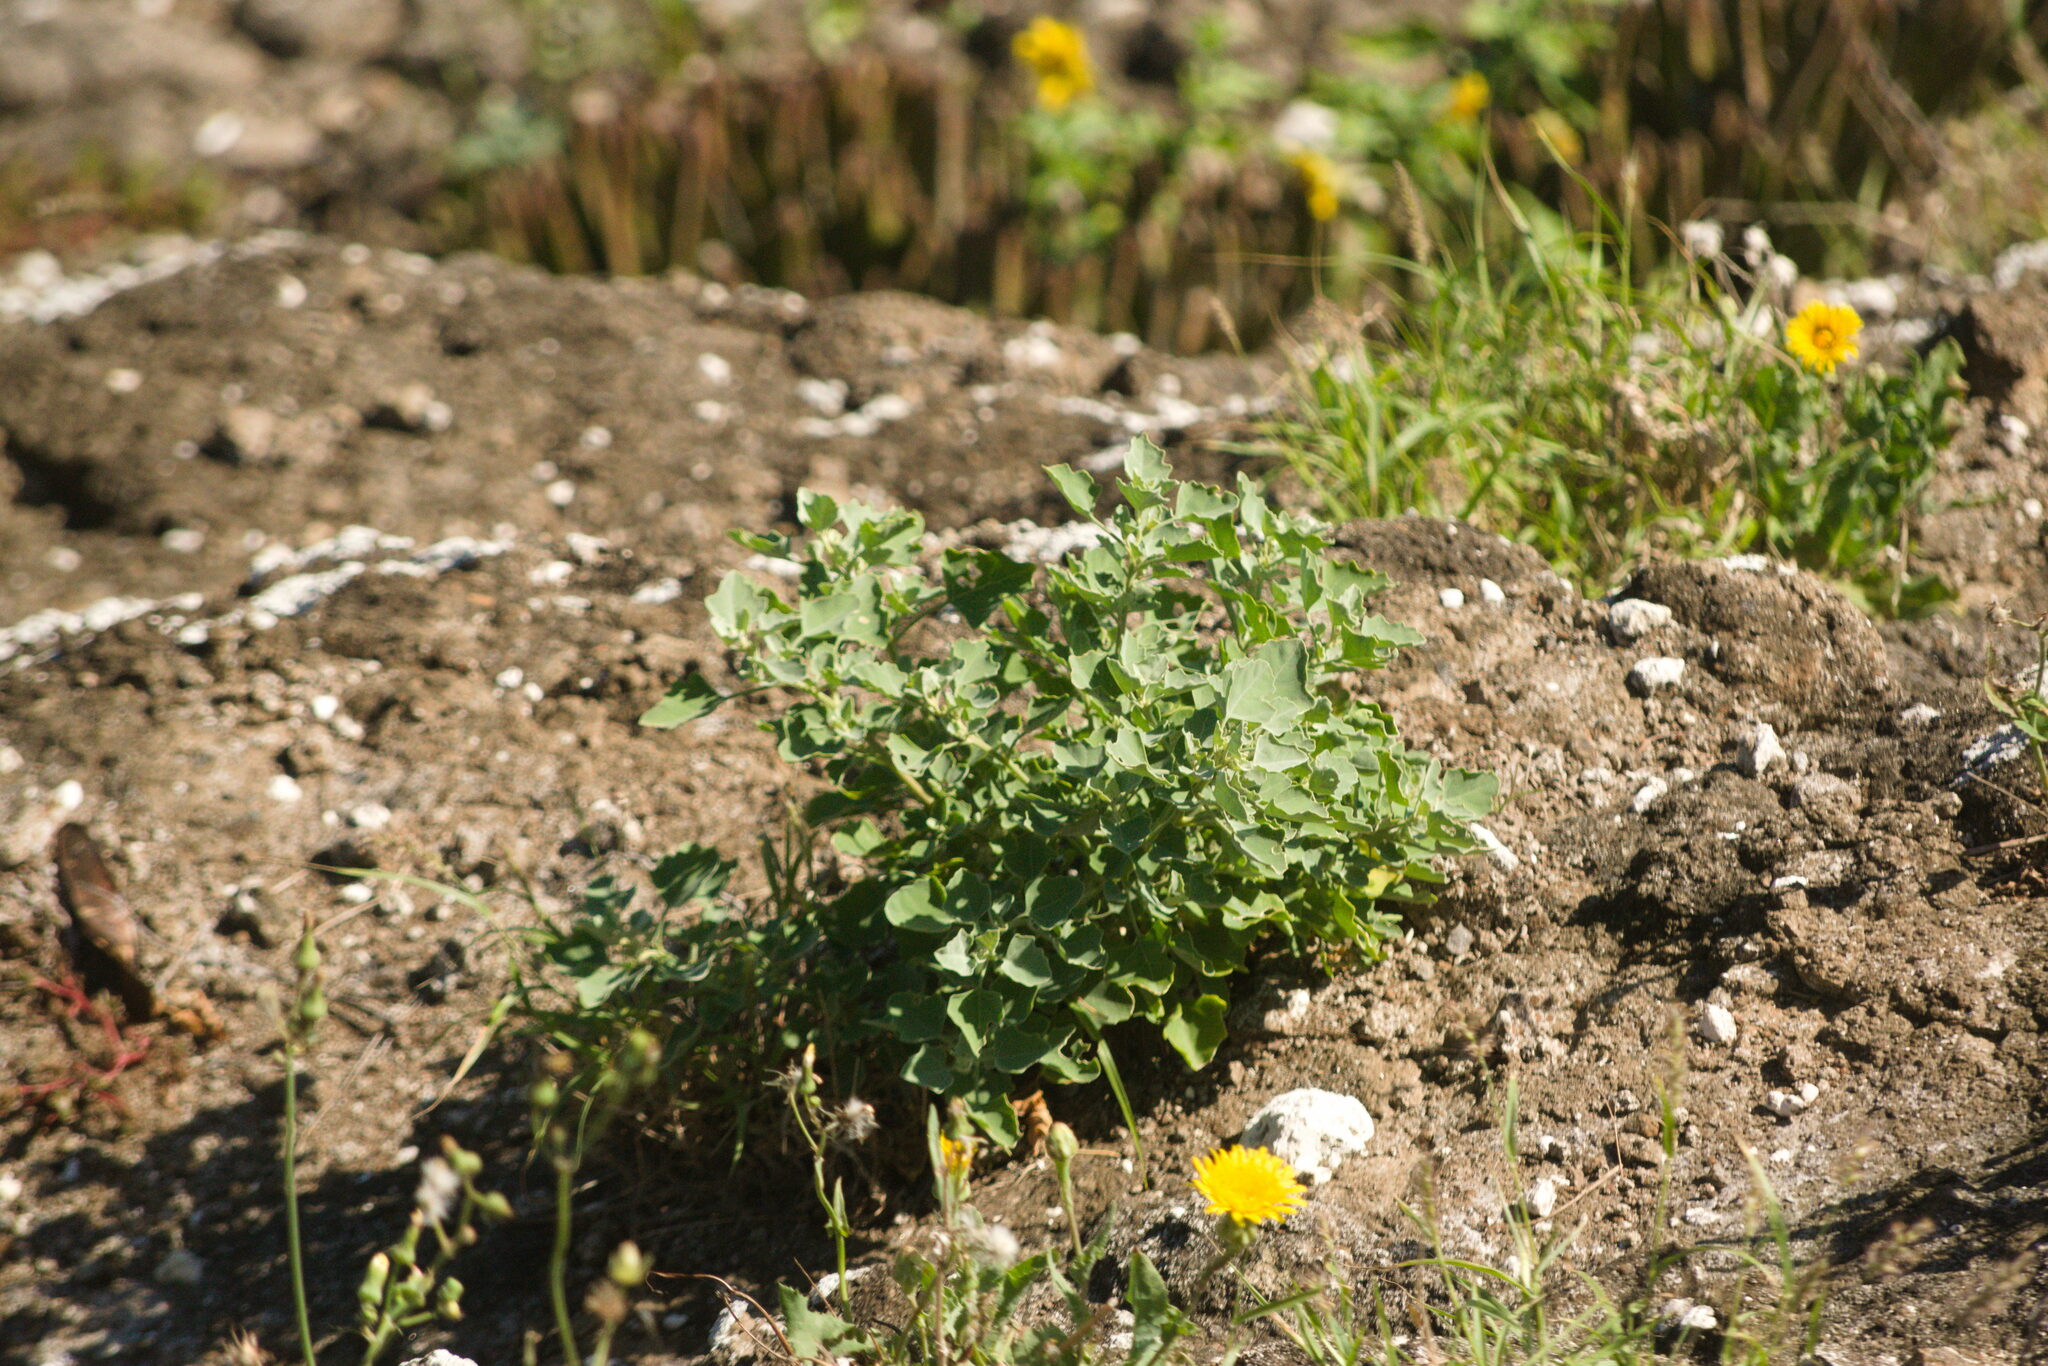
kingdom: Plantae
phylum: Tracheophyta
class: Magnoliopsida
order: Caryophyllales
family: Amaranthaceae
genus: Chenopodium
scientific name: Chenopodium oahuense
